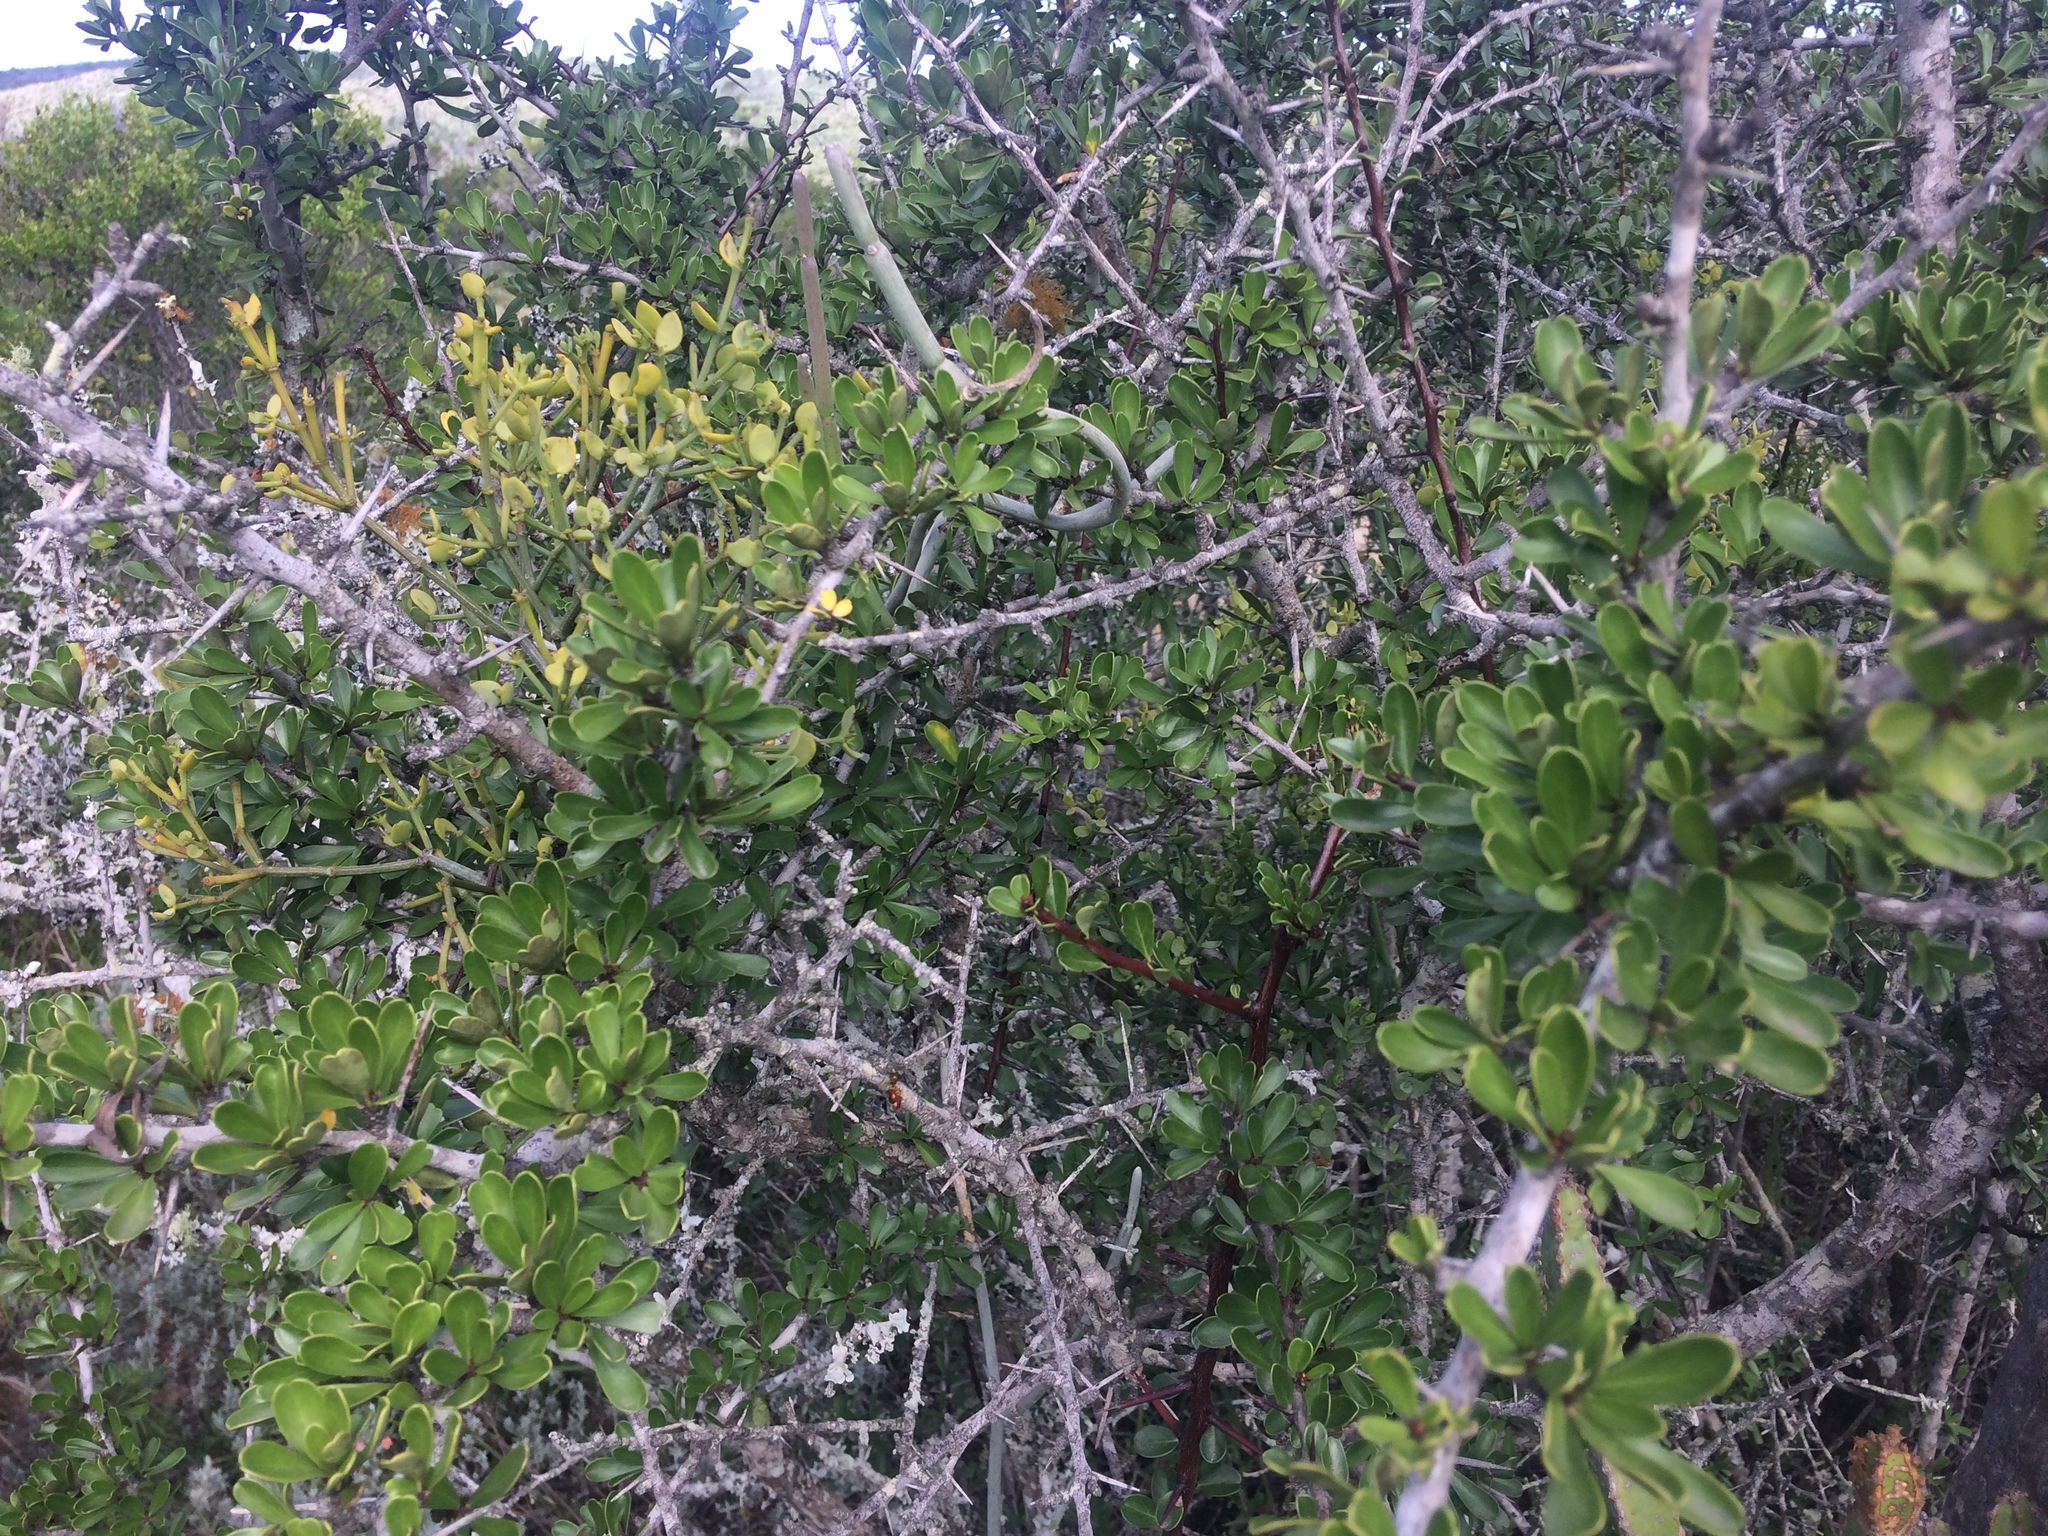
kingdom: Plantae
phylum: Tracheophyta
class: Magnoliopsida
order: Santalales
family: Viscaceae
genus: Viscum
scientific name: Viscum rotundifolium
